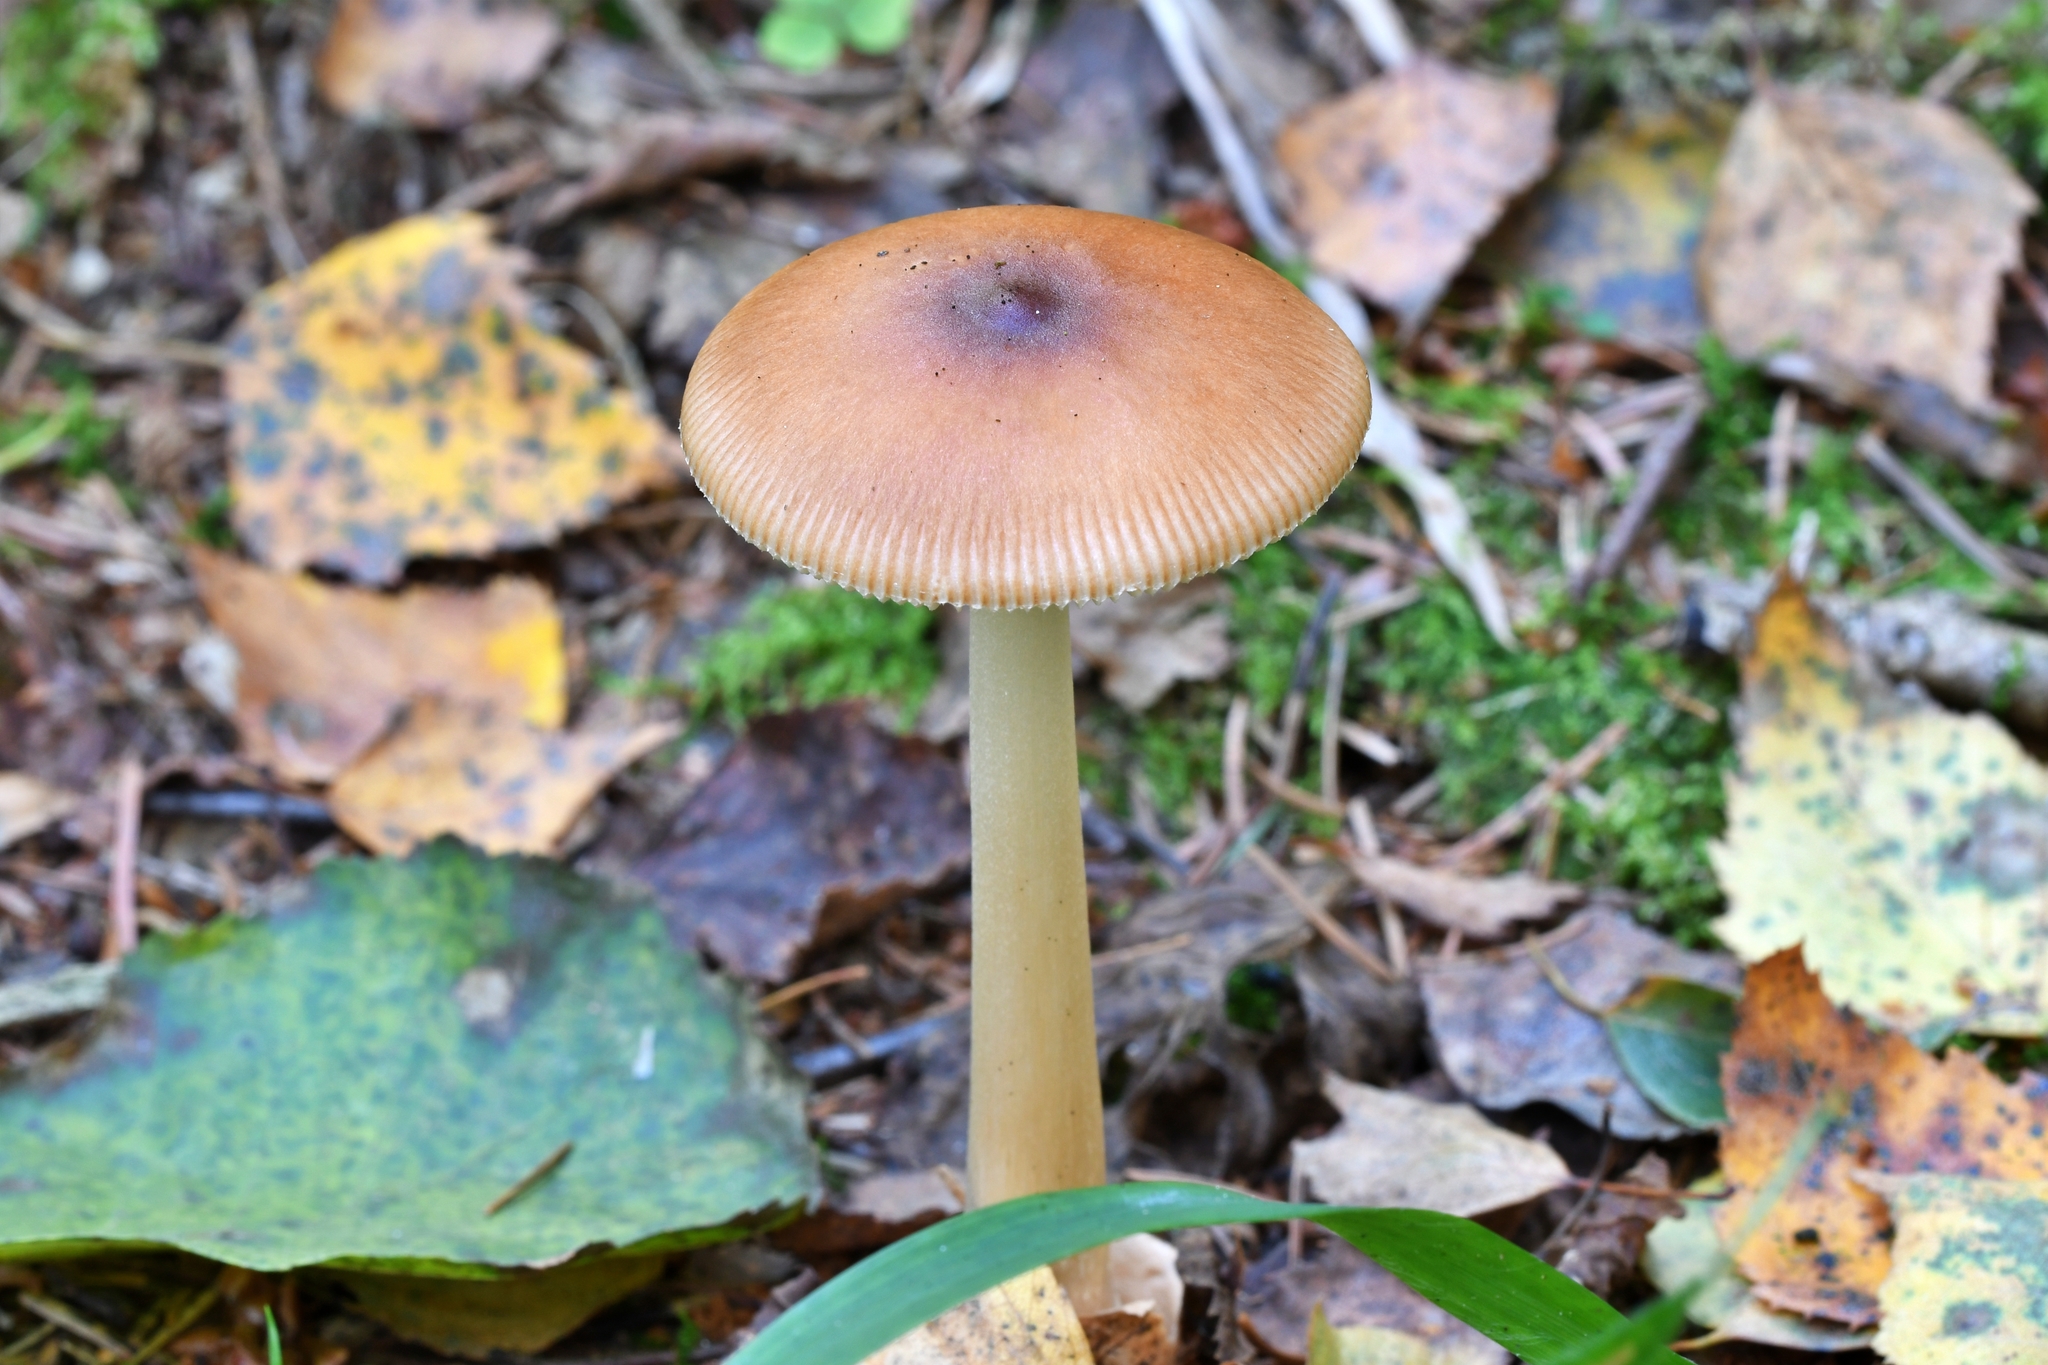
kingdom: Fungi
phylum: Basidiomycota
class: Agaricomycetes
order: Agaricales
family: Amanitaceae
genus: Amanita
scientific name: Amanita fulva
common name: Tawny grisette
